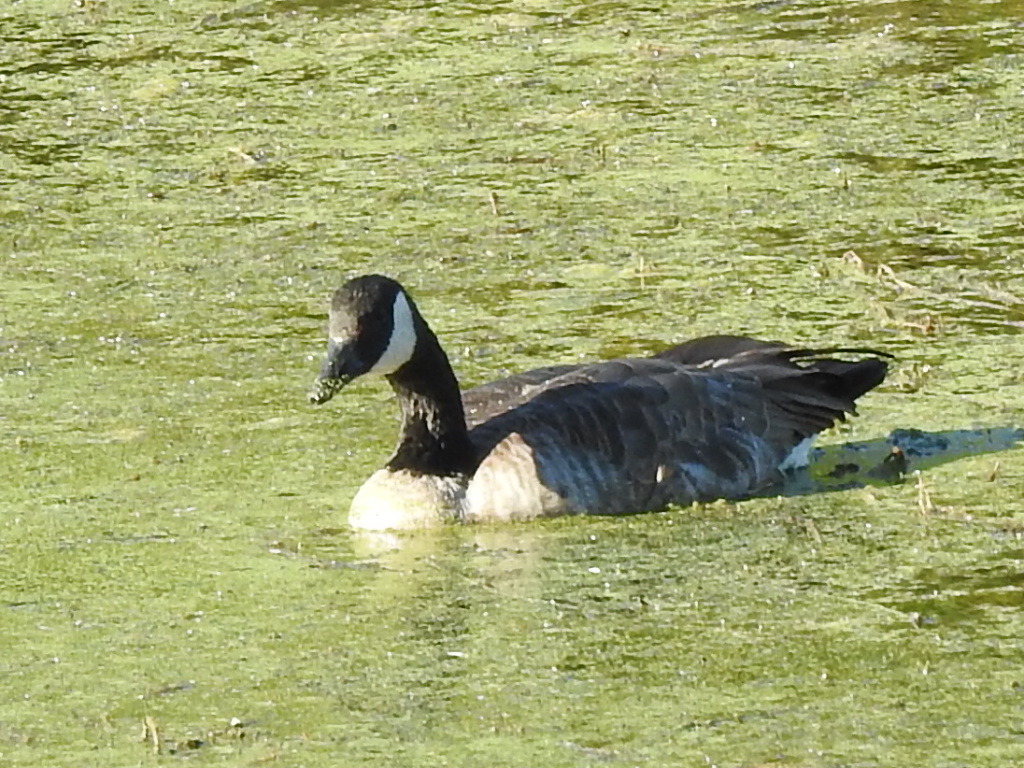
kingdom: Animalia
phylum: Chordata
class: Aves
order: Anseriformes
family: Anatidae
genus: Branta
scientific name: Branta canadensis
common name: Canada goose
